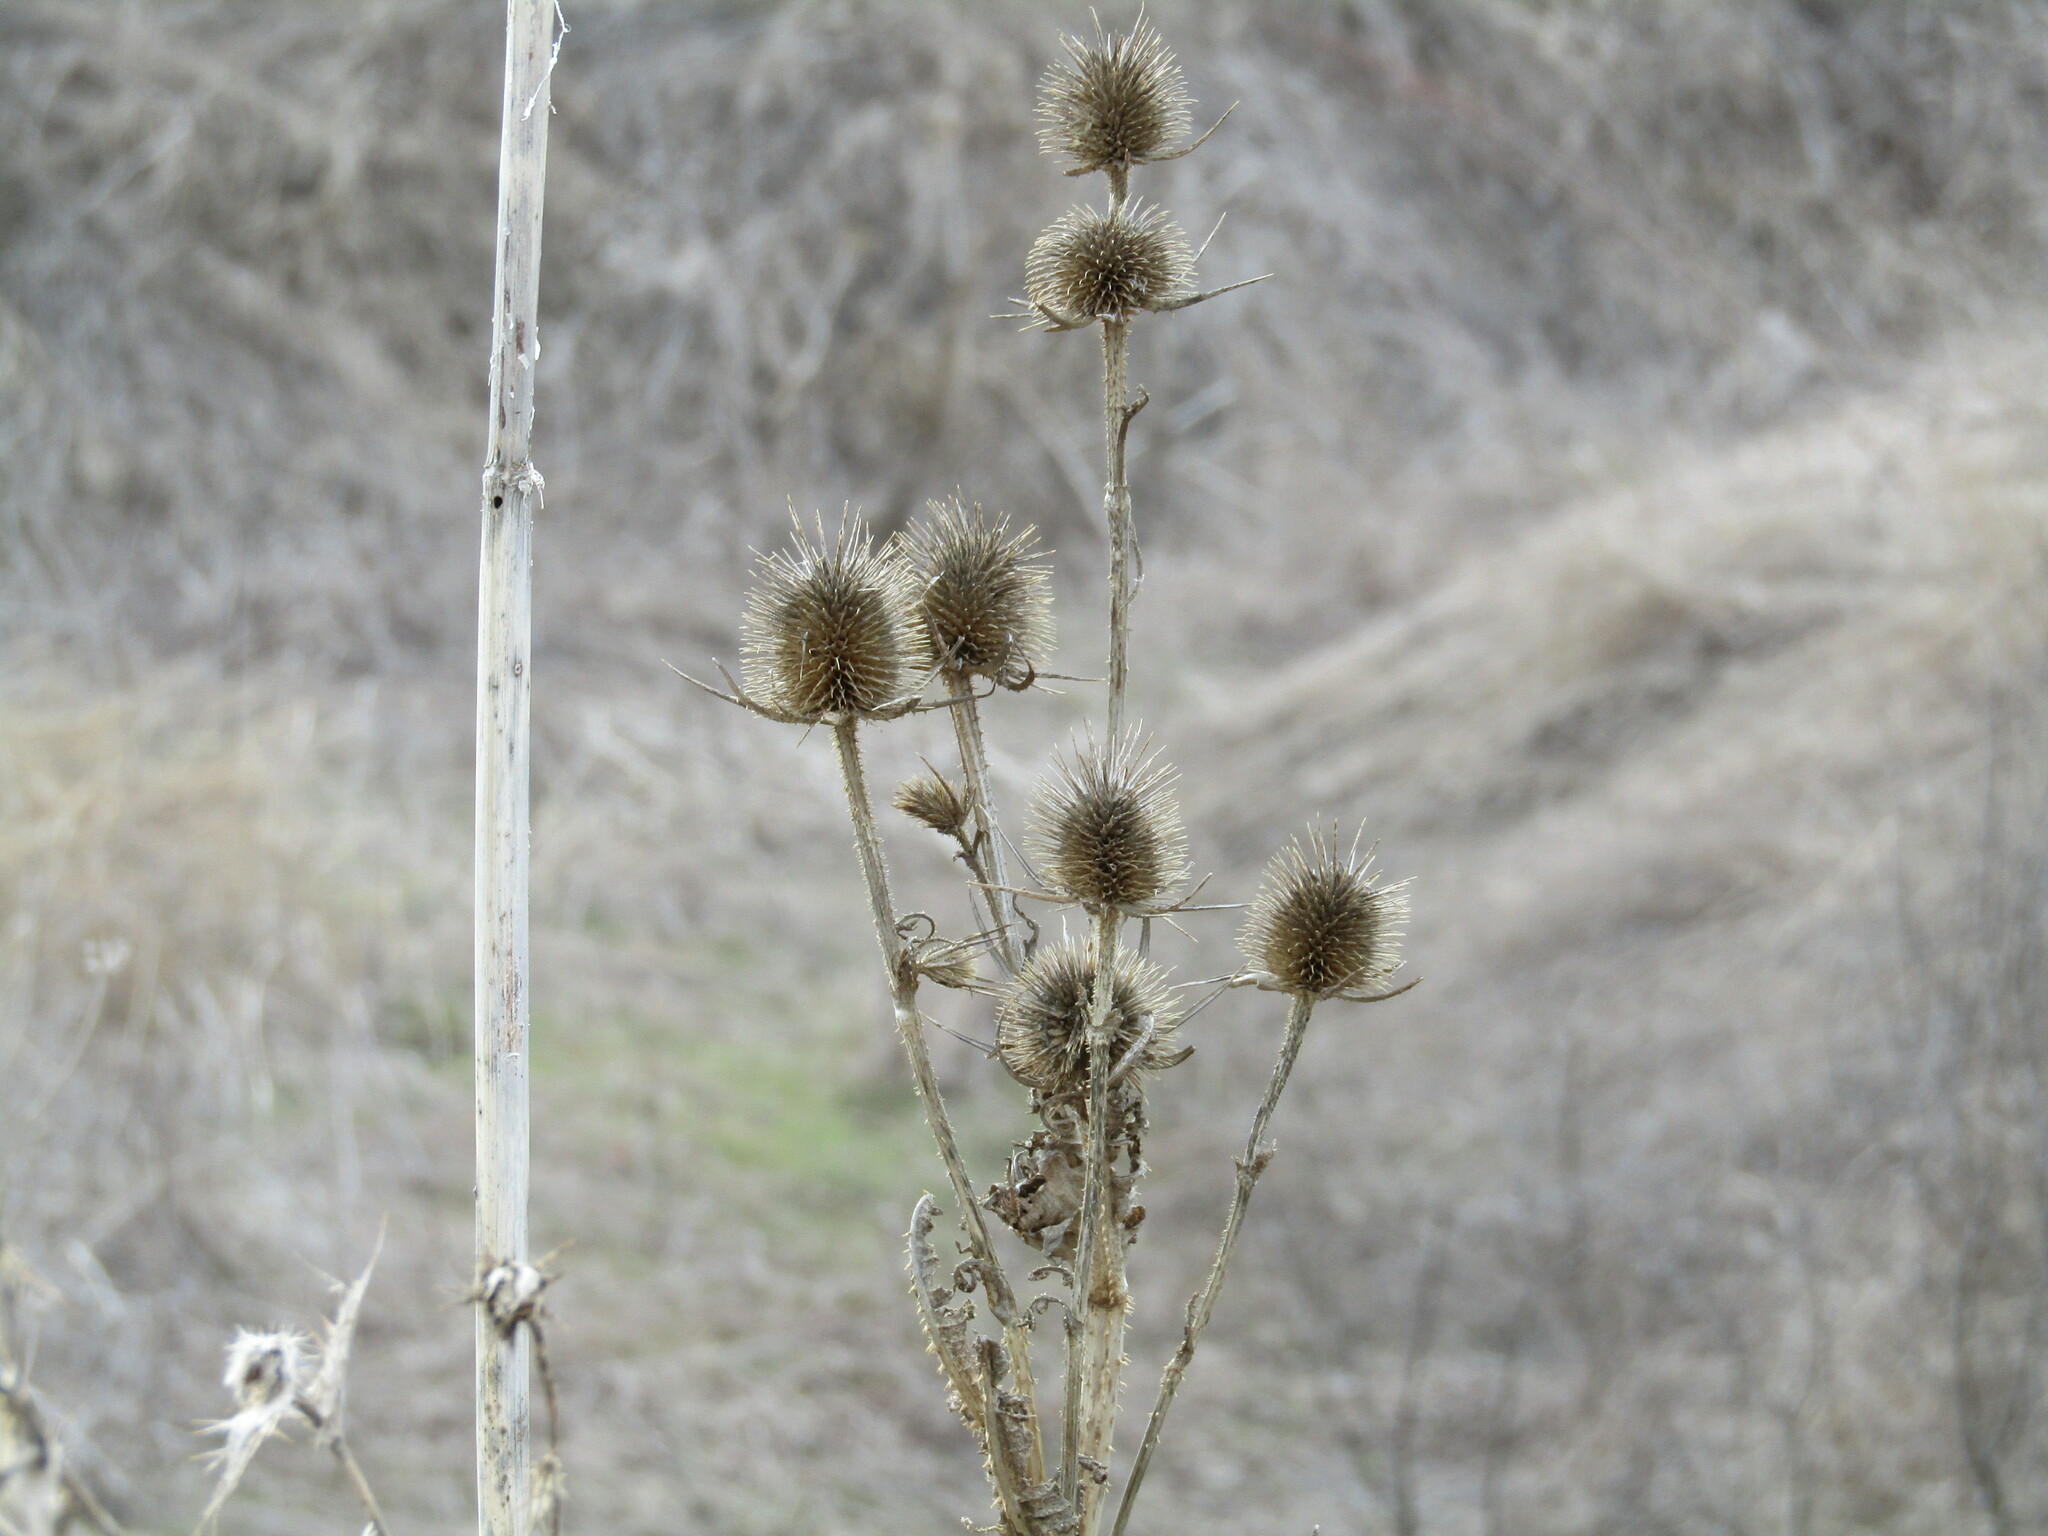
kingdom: Plantae
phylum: Tracheophyta
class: Magnoliopsida
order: Dipsacales
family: Caprifoliaceae
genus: Dipsacus
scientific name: Dipsacus laciniatus
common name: Cut-leaved teasel
